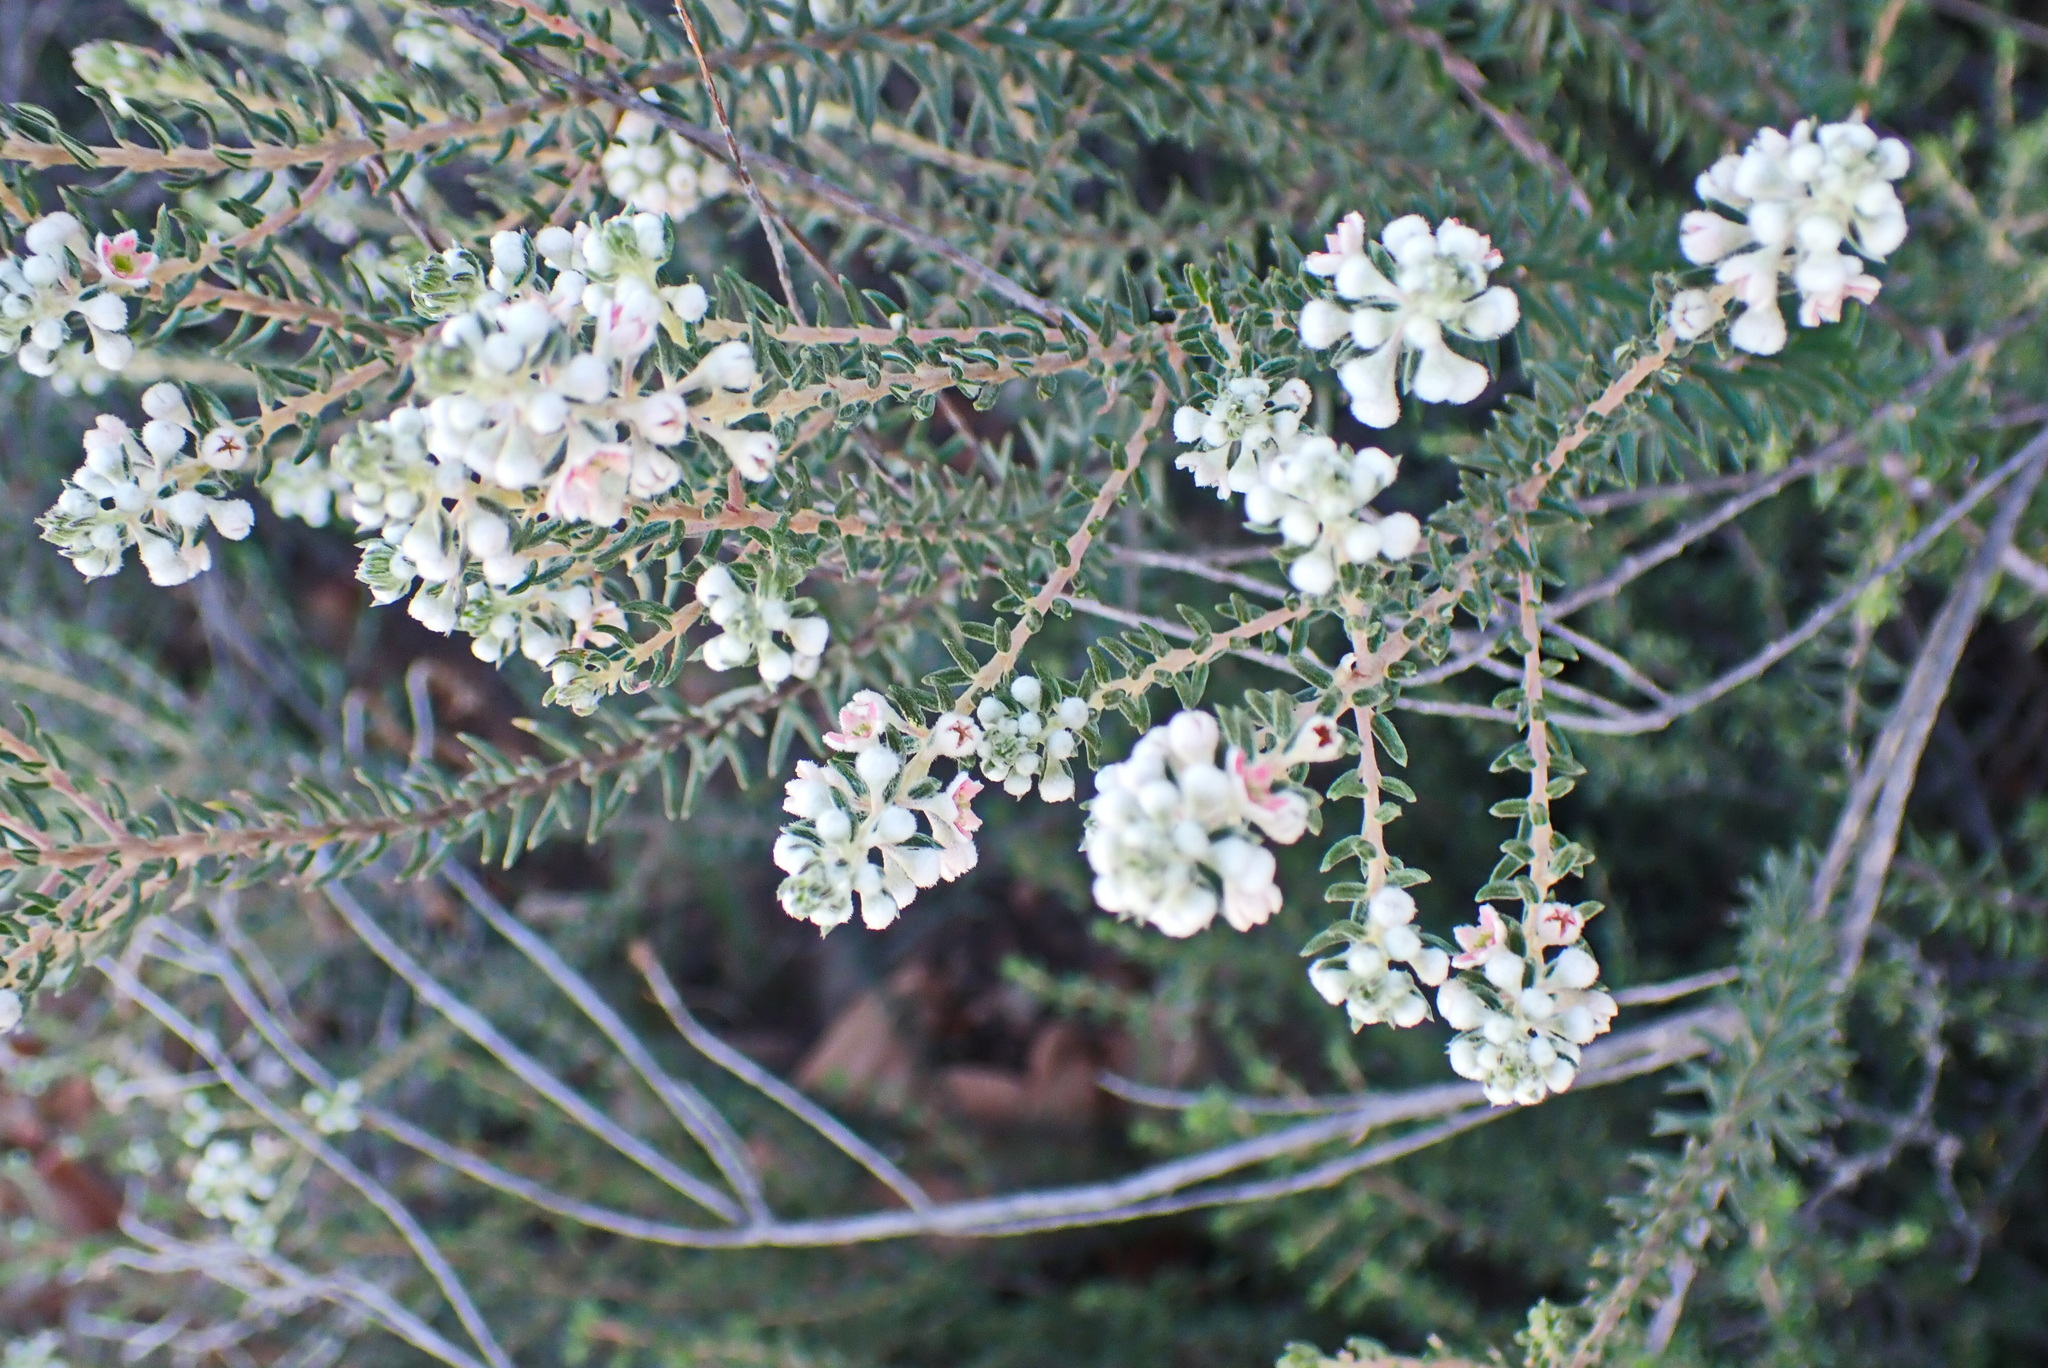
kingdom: Plantae
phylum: Tracheophyta
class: Magnoliopsida
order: Rosales
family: Rhamnaceae
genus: Phylica
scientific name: Phylica purpurea
